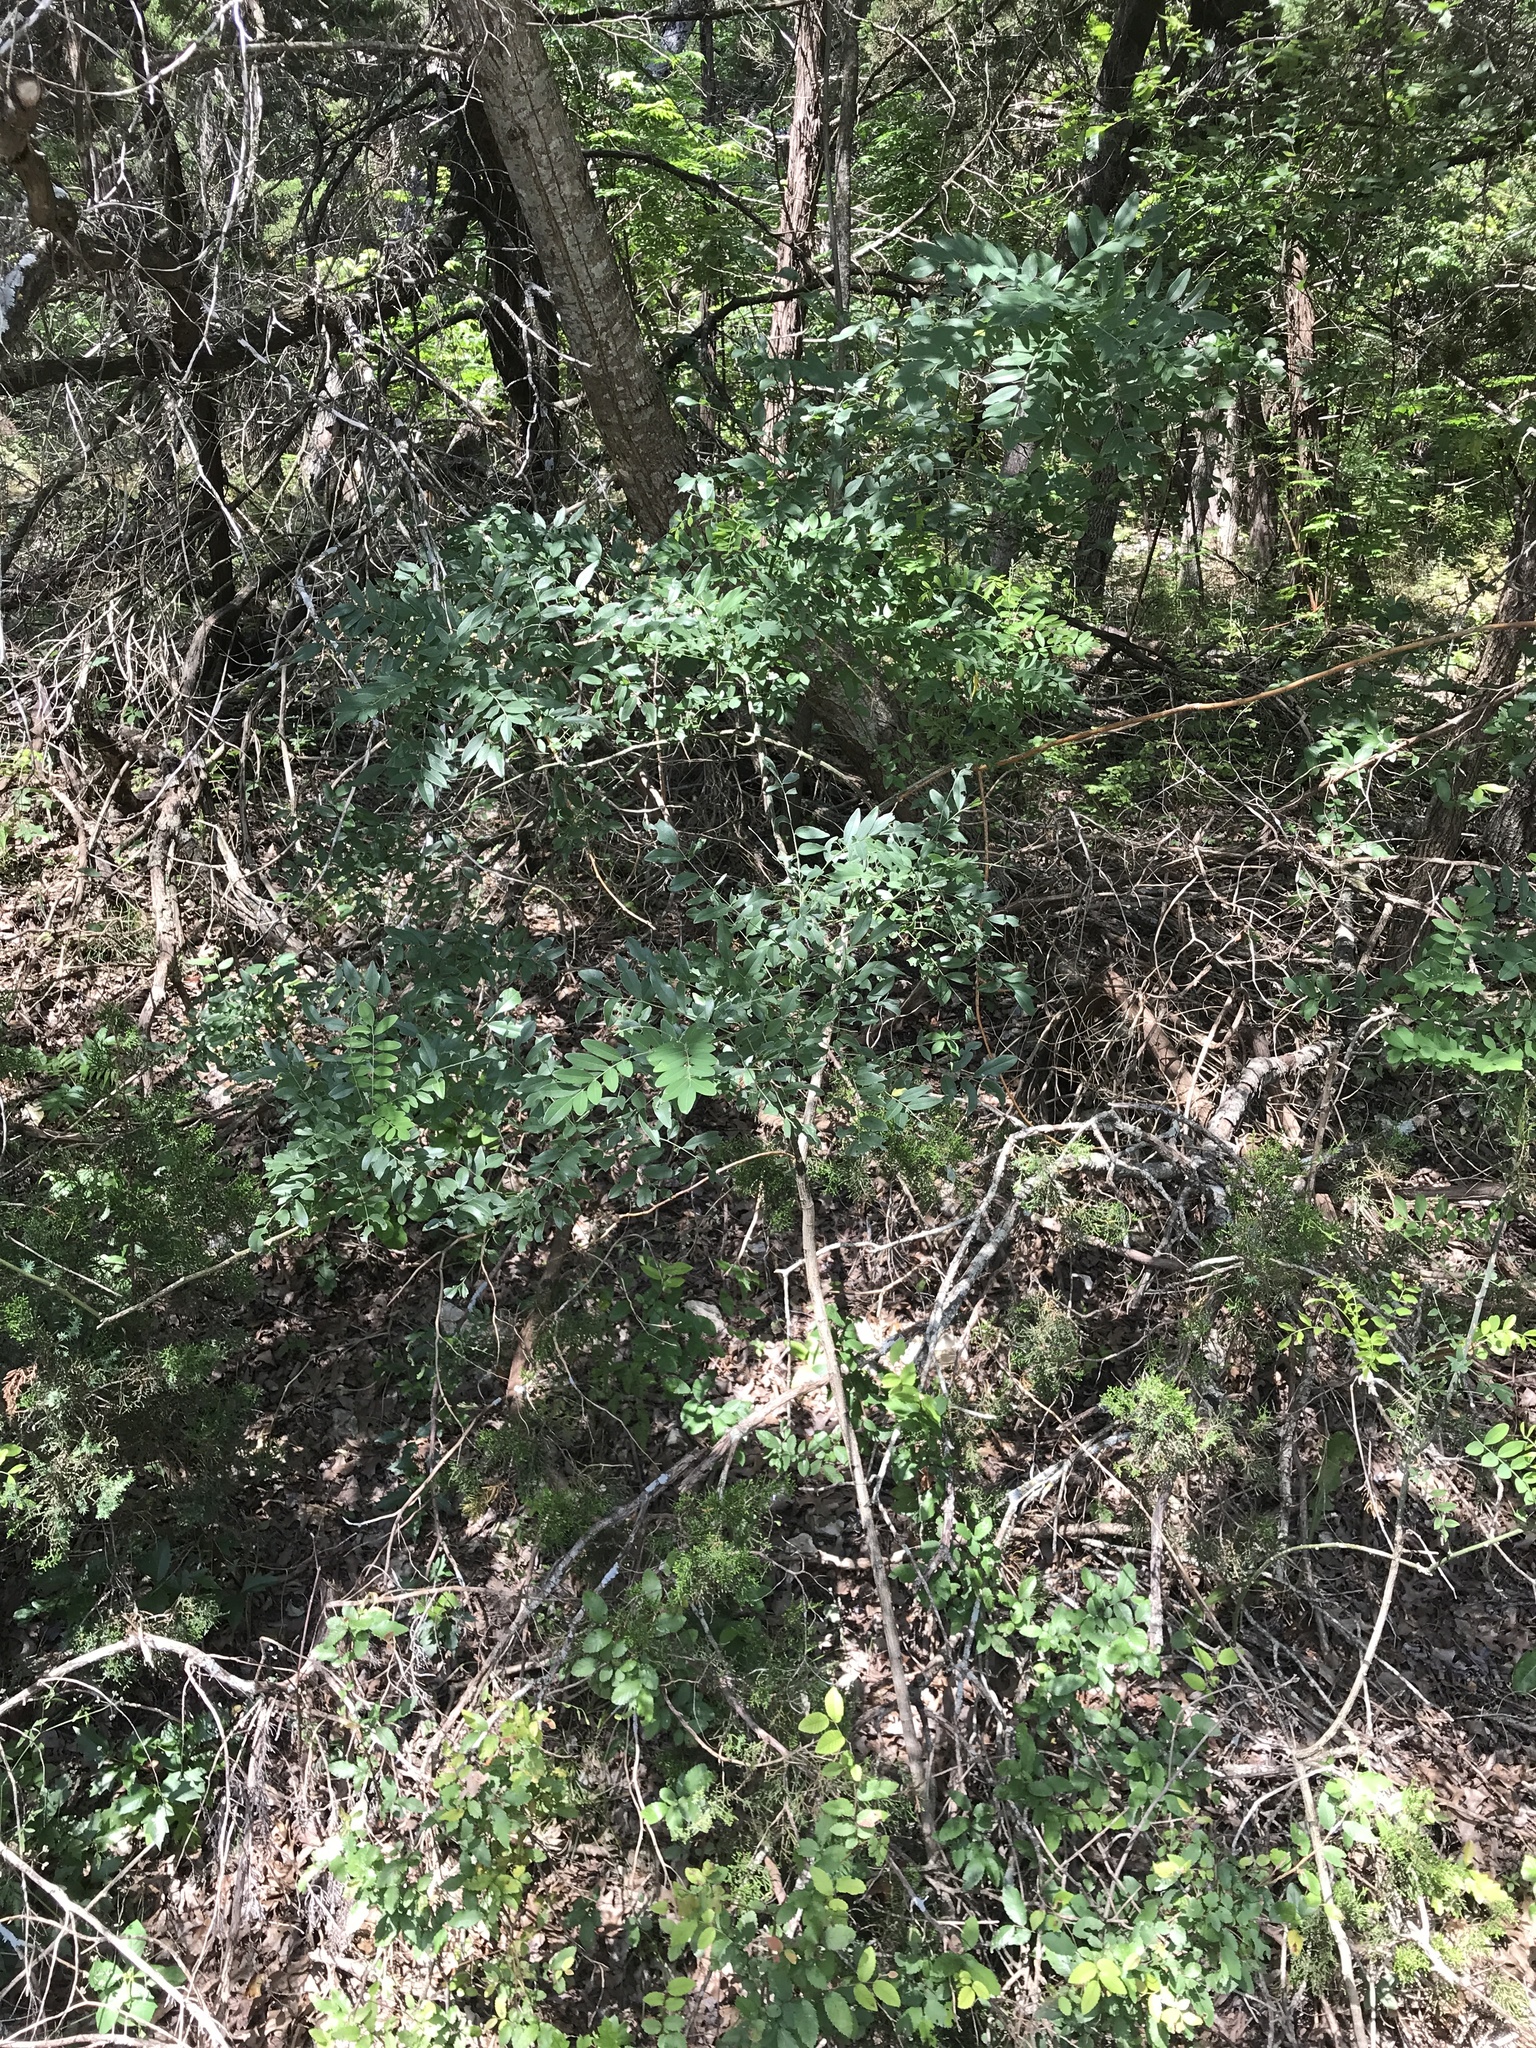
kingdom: Plantae
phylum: Tracheophyta
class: Magnoliopsida
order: Fabales
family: Fabaceae
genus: Styphnolobium
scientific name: Styphnolobium affine
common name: Texas sophora
